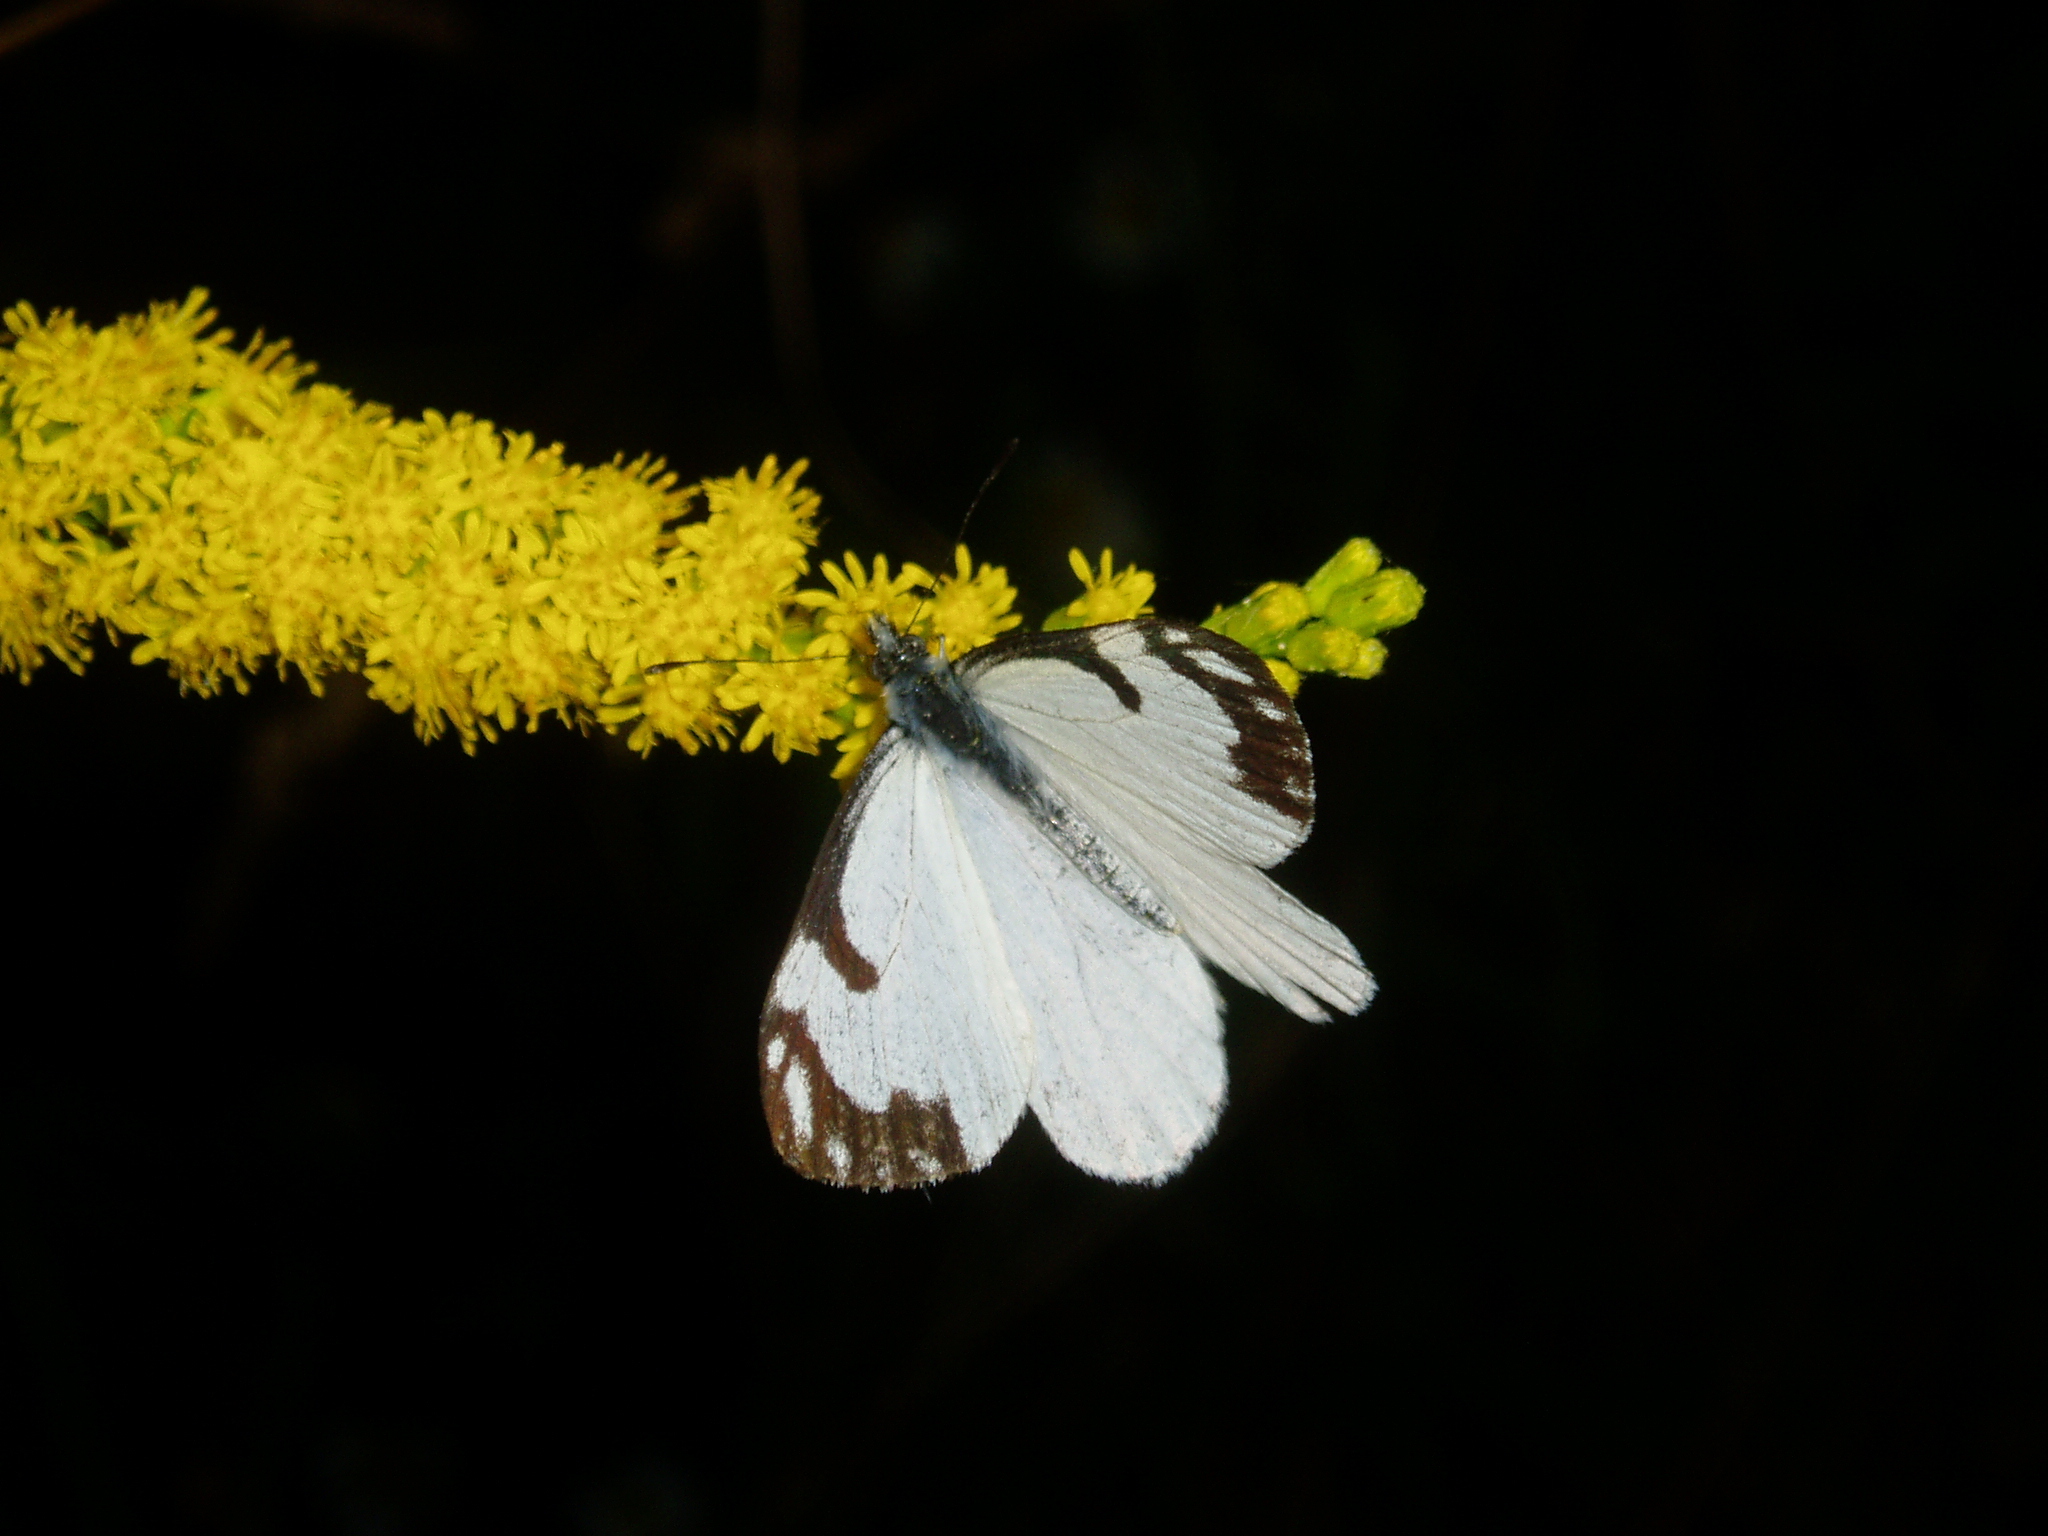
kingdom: Animalia
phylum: Arthropoda
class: Insecta
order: Lepidoptera
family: Pieridae
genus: Neophasia
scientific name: Neophasia menapia
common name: Pine white
